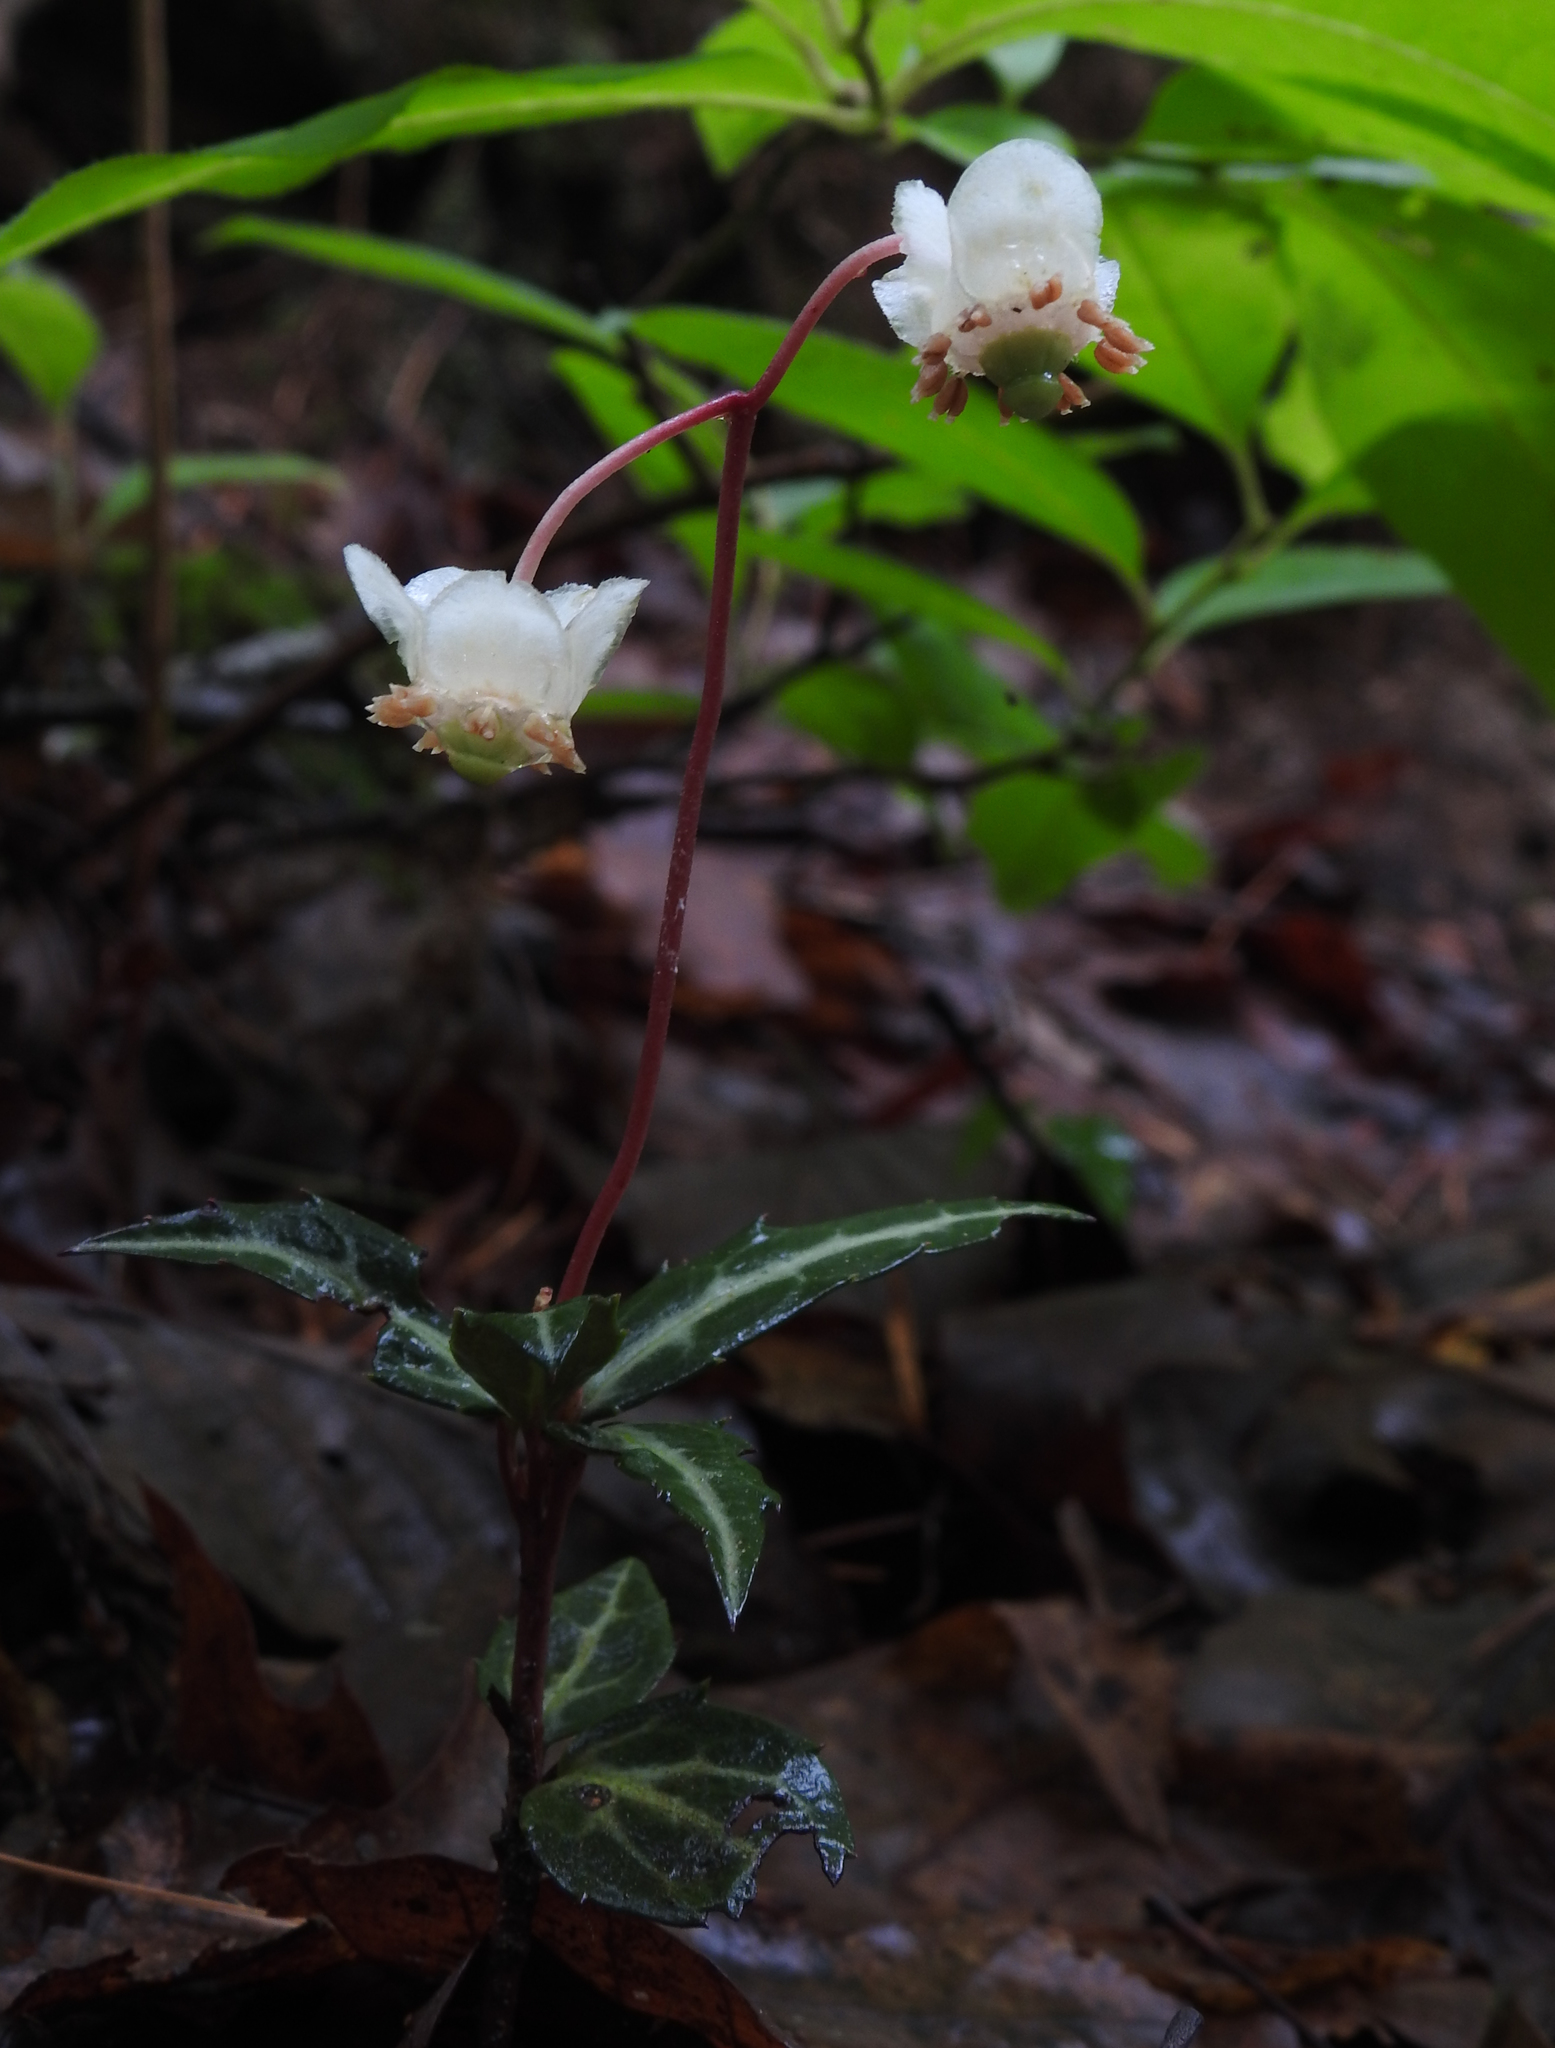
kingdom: Plantae
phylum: Tracheophyta
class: Magnoliopsida
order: Ericales
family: Ericaceae
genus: Chimaphila
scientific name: Chimaphila maculata
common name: Spotted pipsissewa
